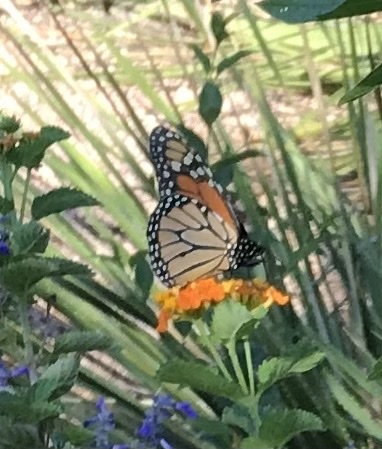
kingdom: Animalia
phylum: Arthropoda
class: Insecta
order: Lepidoptera
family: Nymphalidae
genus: Danaus
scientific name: Danaus plexippus
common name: Monarch
